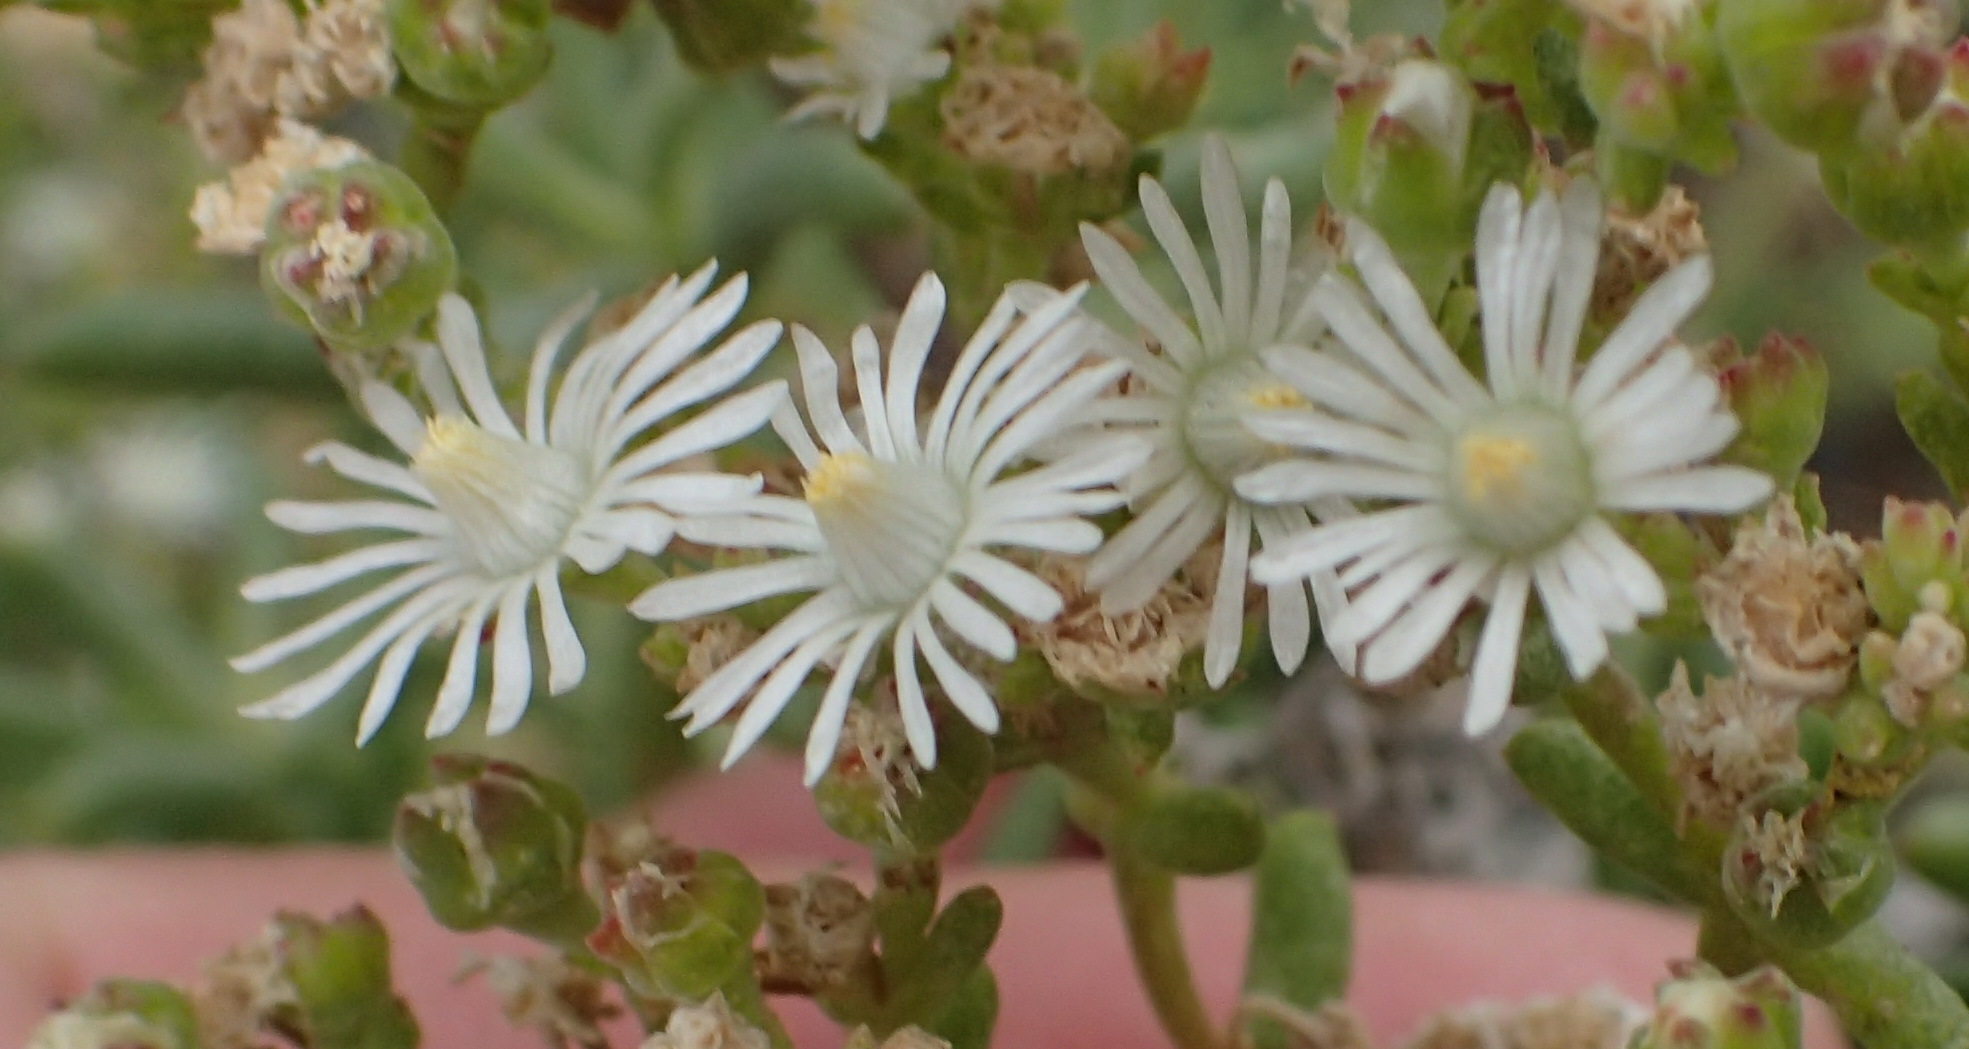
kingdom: Plantae
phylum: Tracheophyta
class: Magnoliopsida
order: Caryophyllales
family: Aizoaceae
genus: Delosperma
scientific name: Delosperma frutescens
